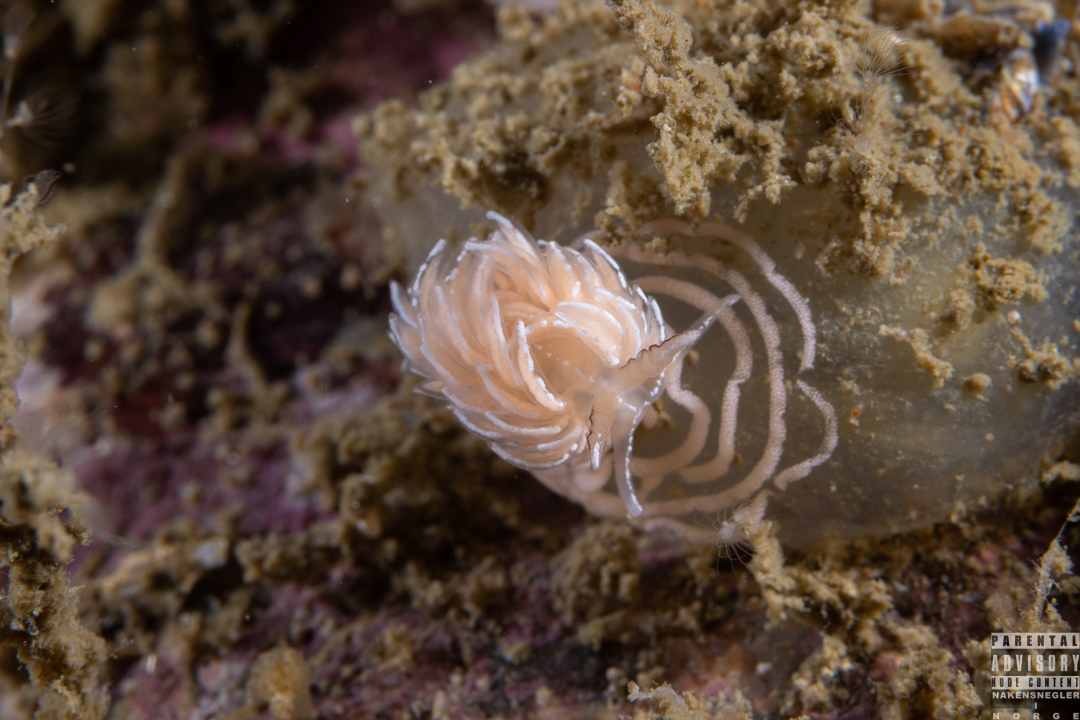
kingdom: Animalia
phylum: Mollusca
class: Gastropoda
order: Nudibranchia
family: Facelinidae
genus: Favorinus
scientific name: Favorinus blianus
